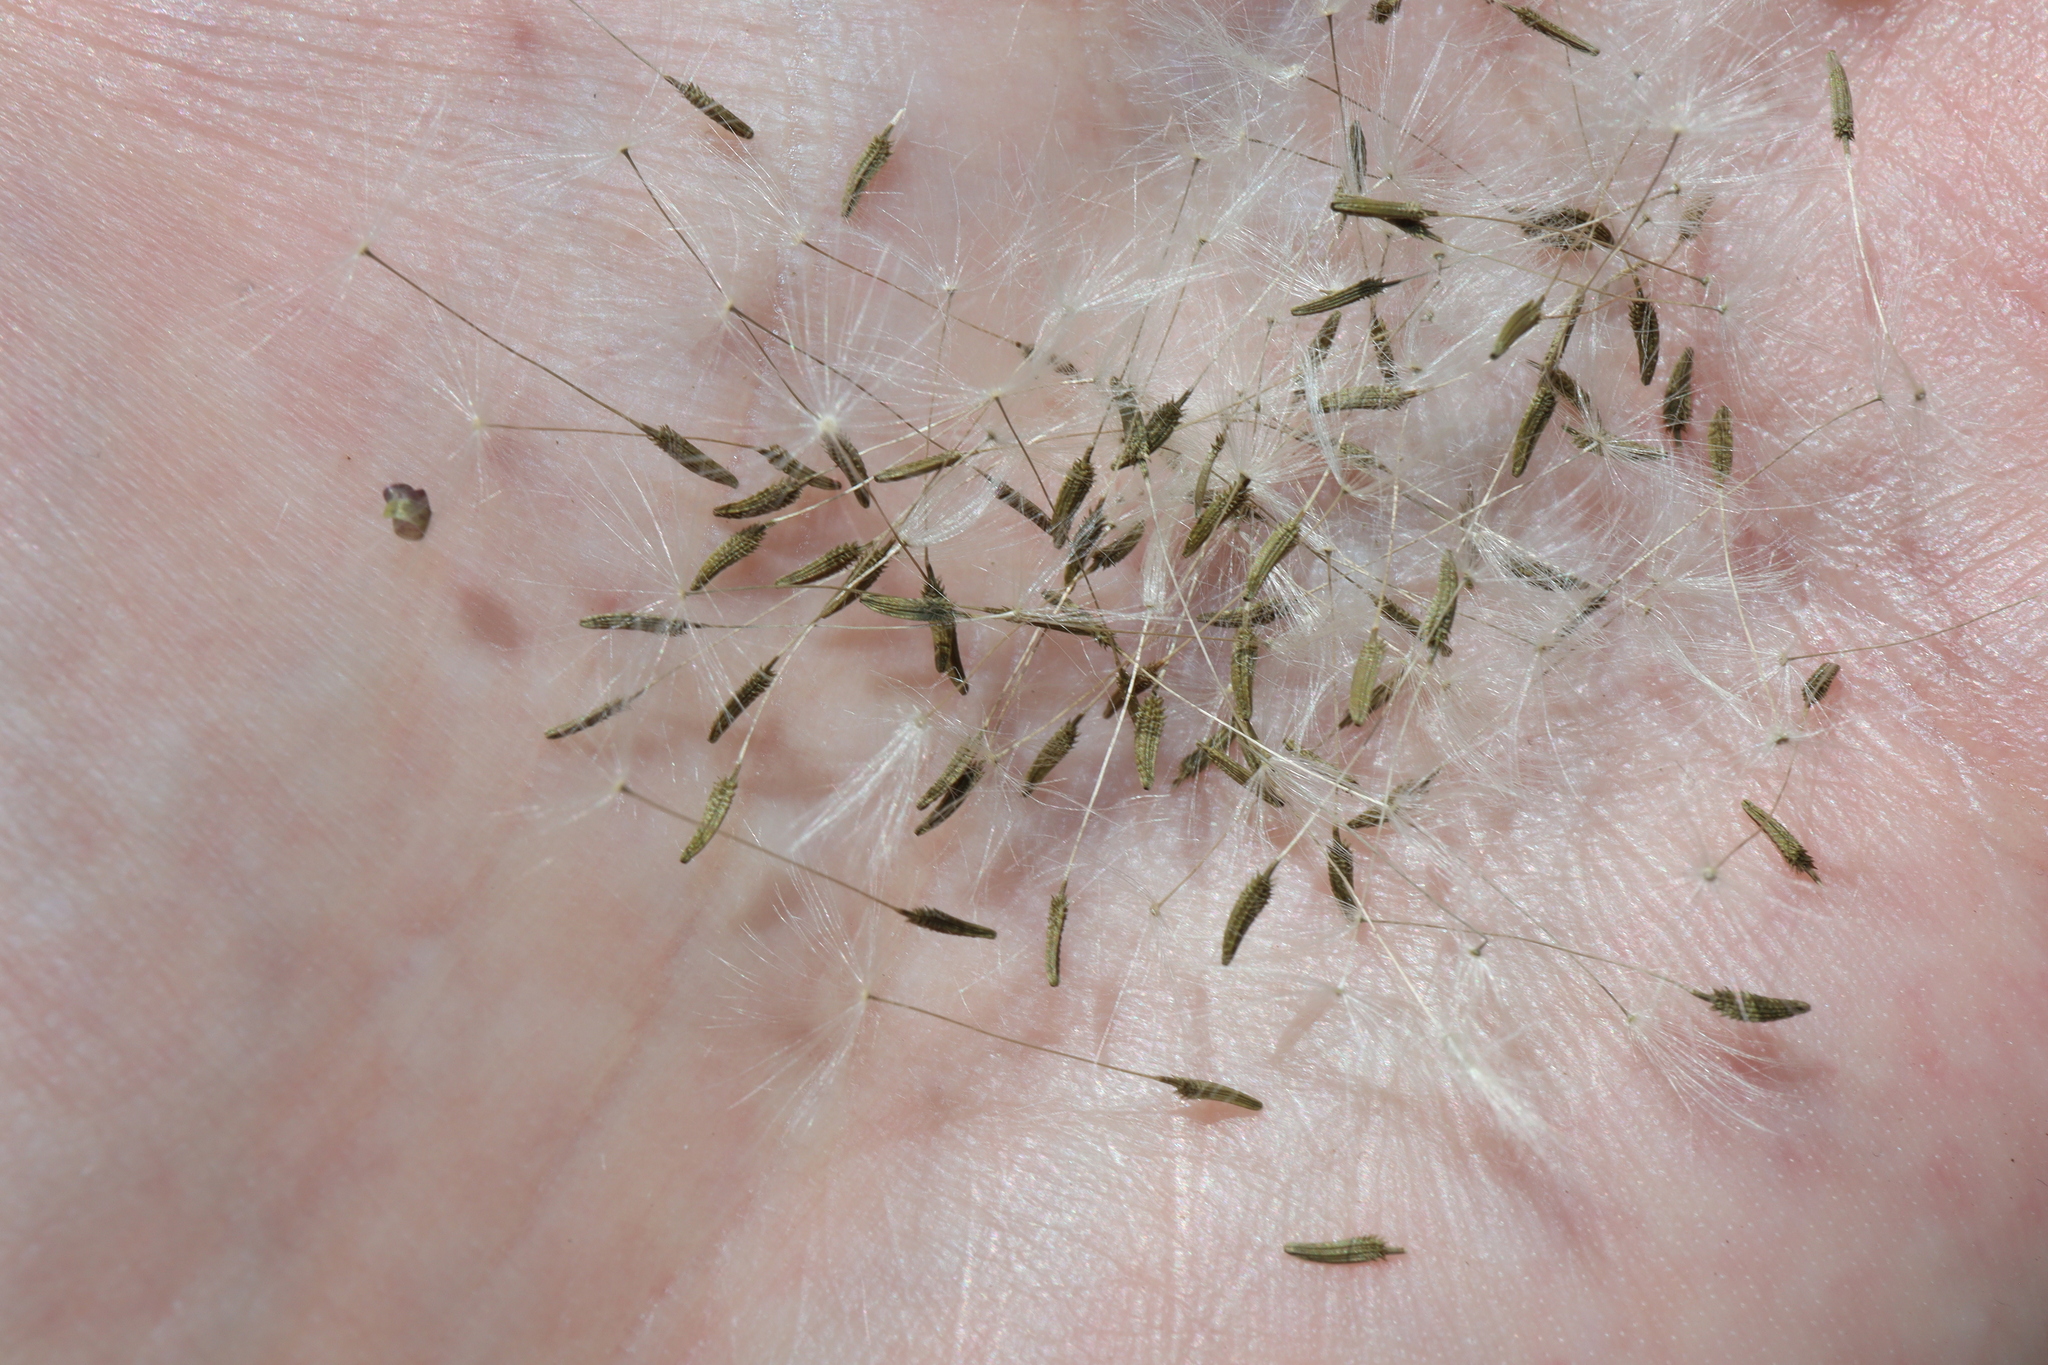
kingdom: Plantae
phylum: Tracheophyta
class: Magnoliopsida
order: Asterales
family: Asteraceae
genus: Taraxacum
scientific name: Taraxacum officinale
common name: Common dandelion
